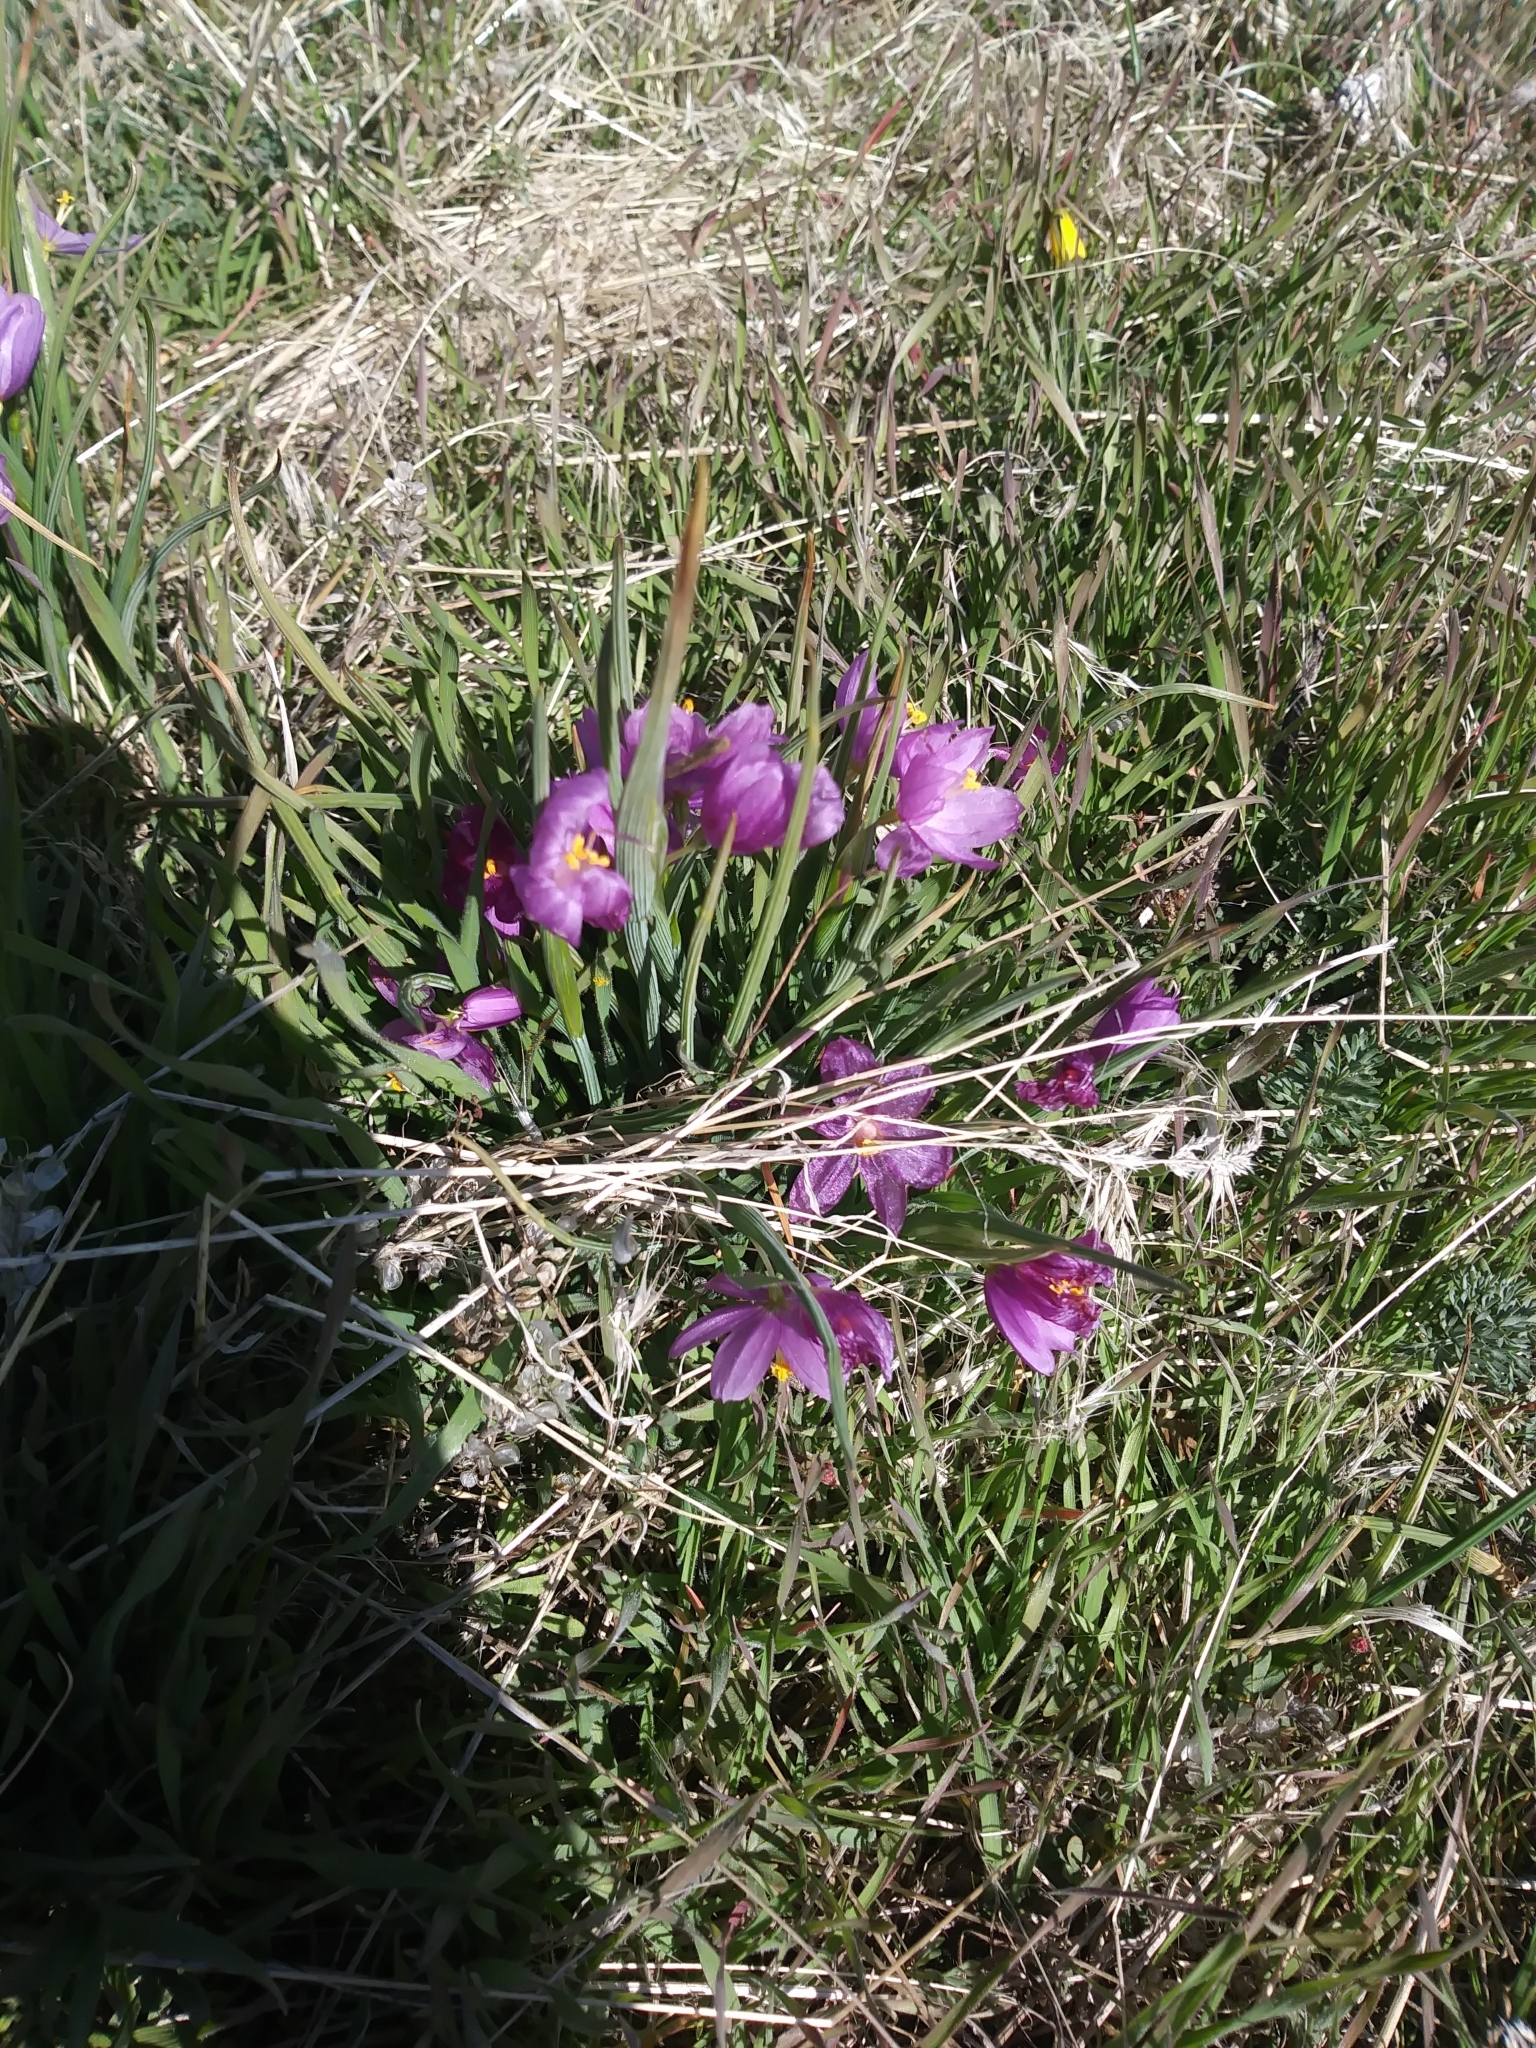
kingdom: Plantae
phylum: Tracheophyta
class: Liliopsida
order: Asparagales
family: Iridaceae
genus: Olsynium
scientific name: Olsynium douglasii
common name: Douglas' grasswidow
